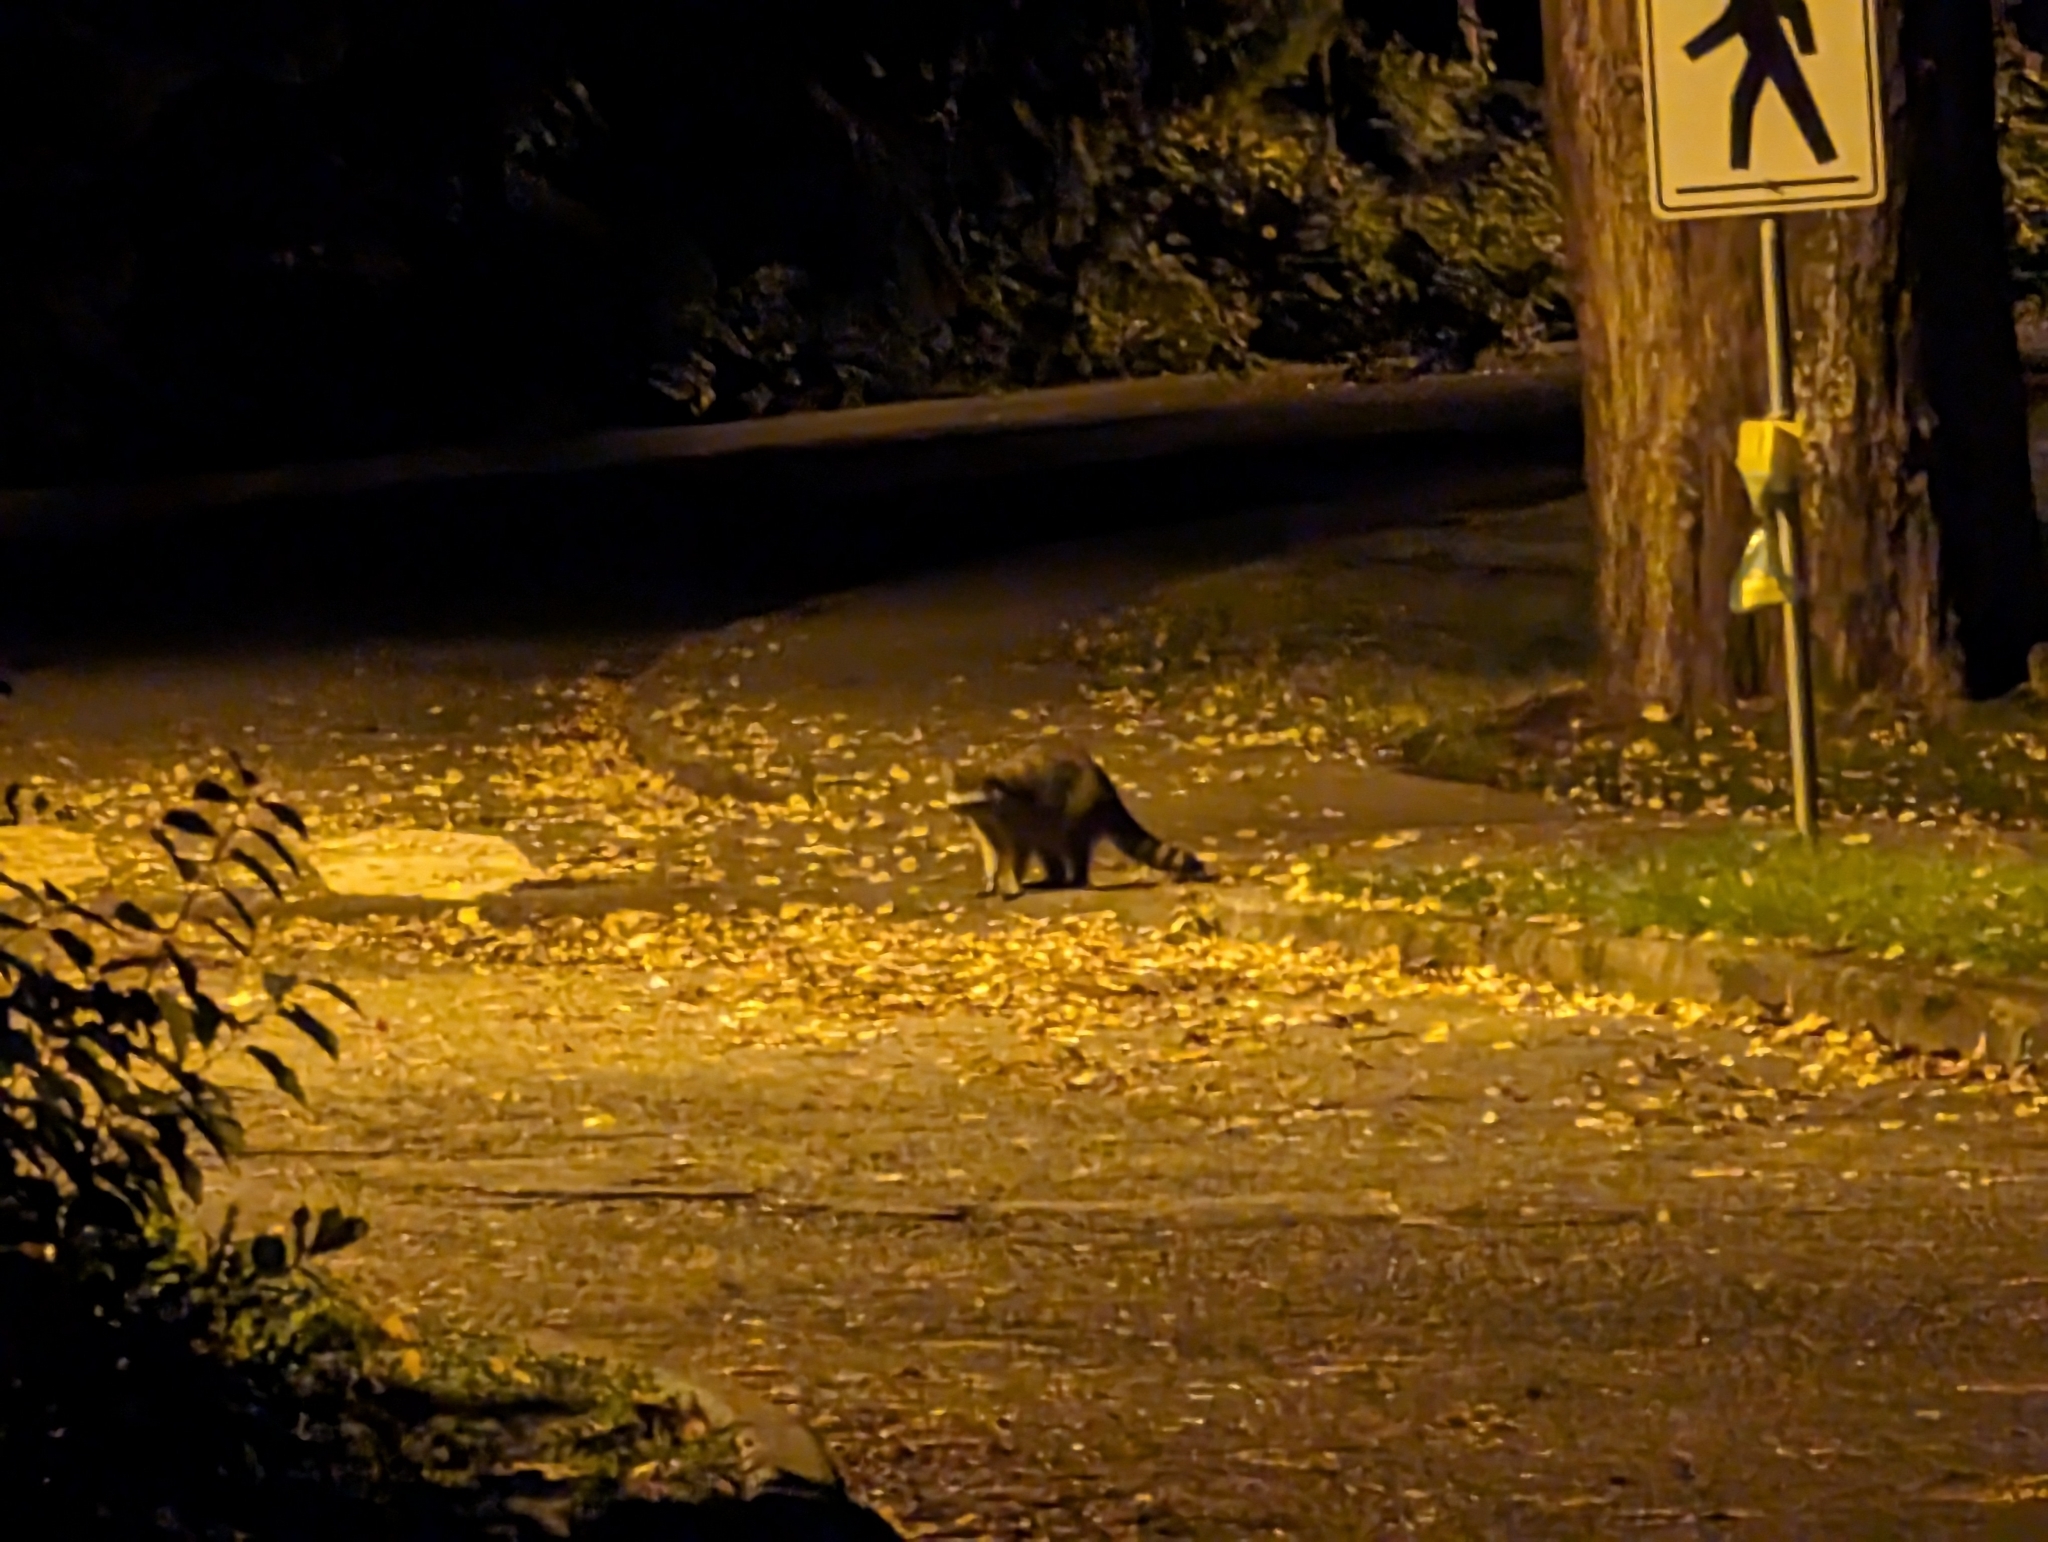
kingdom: Animalia
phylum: Chordata
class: Mammalia
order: Carnivora
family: Procyonidae
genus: Procyon
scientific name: Procyon lotor
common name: Raccoon
